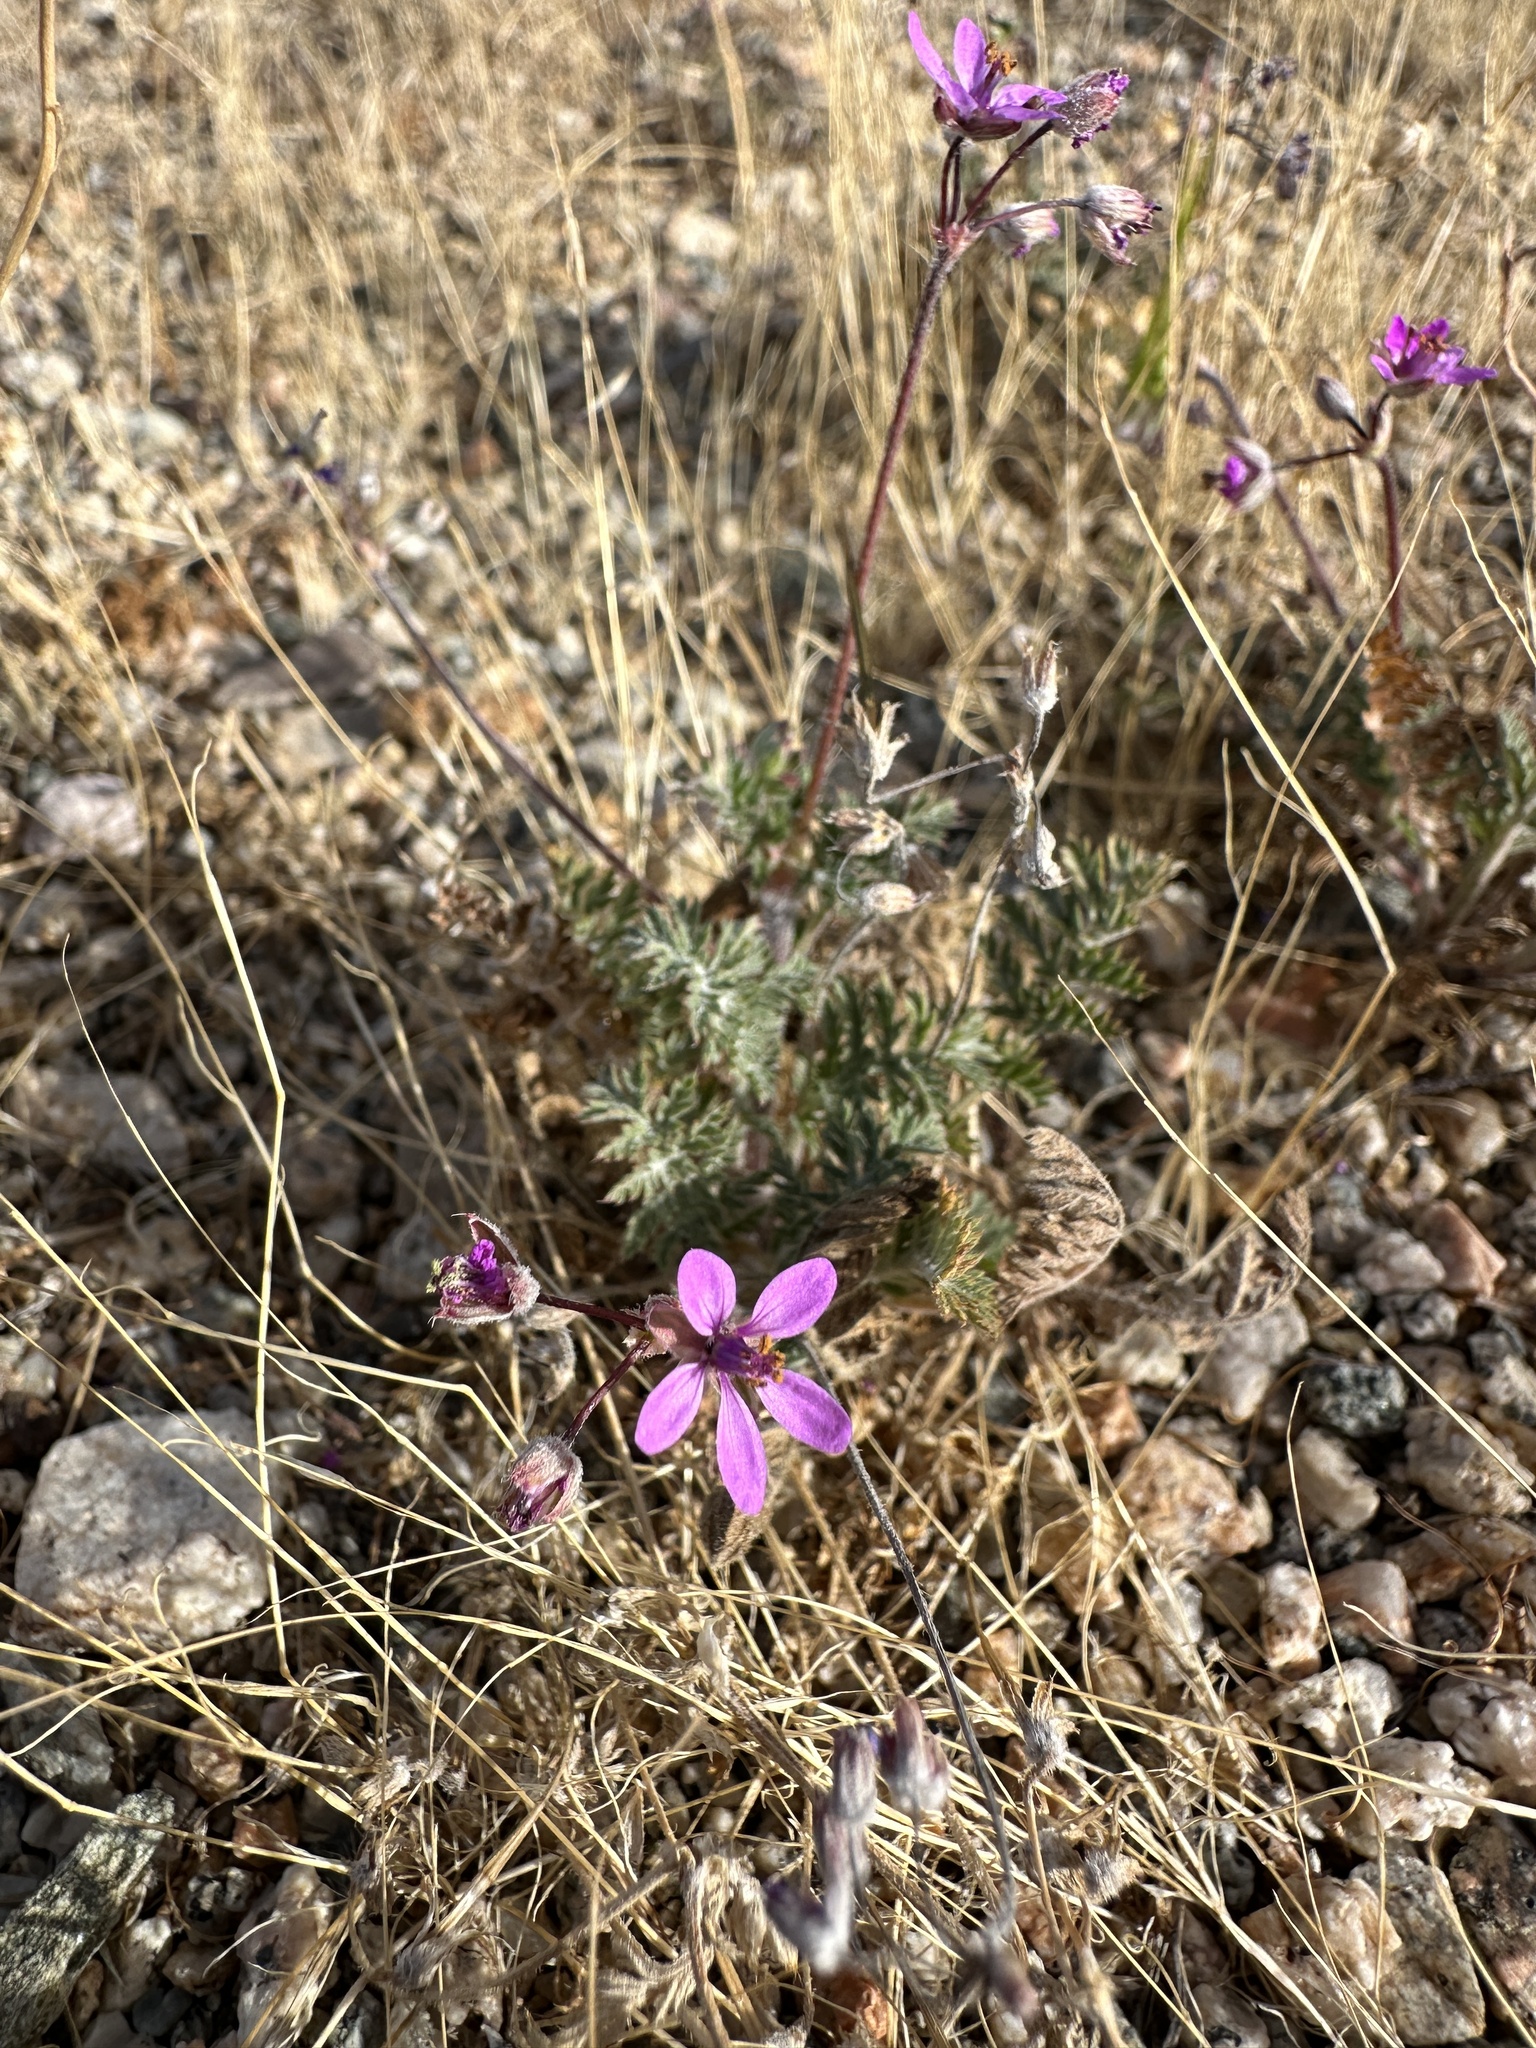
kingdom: Plantae
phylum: Tracheophyta
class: Magnoliopsida
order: Geraniales
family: Geraniaceae
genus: Erodium
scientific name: Erodium cicutarium
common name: Common stork's-bill
